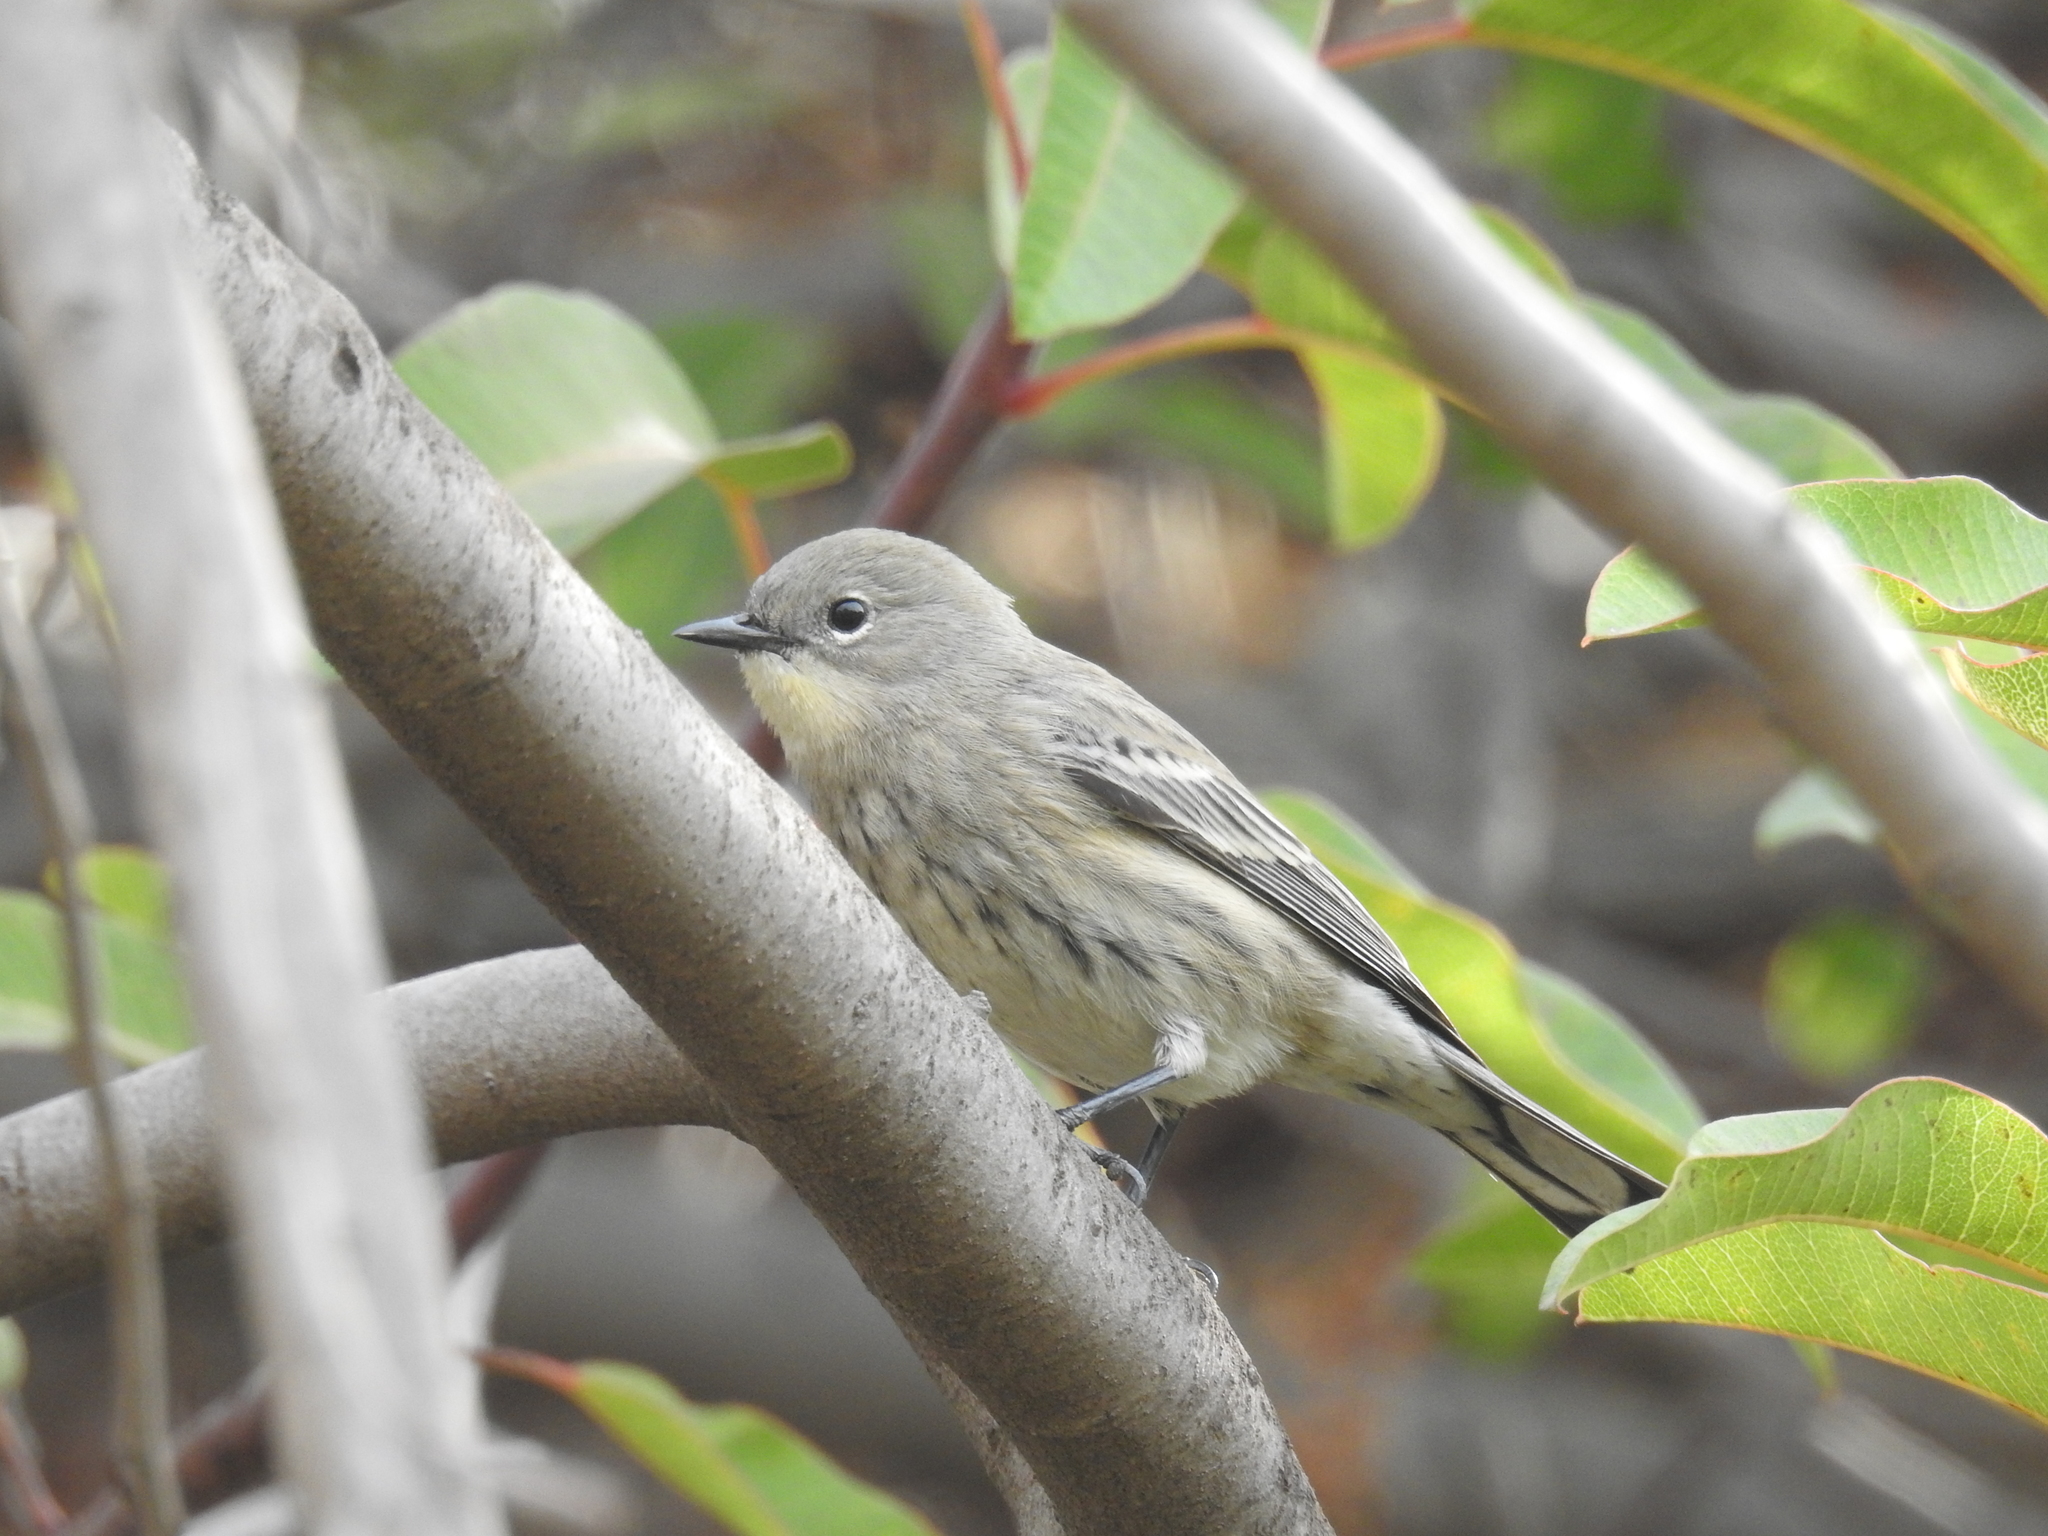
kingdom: Animalia
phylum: Chordata
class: Aves
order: Passeriformes
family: Parulidae
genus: Setophaga
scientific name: Setophaga coronata
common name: Myrtle warbler
